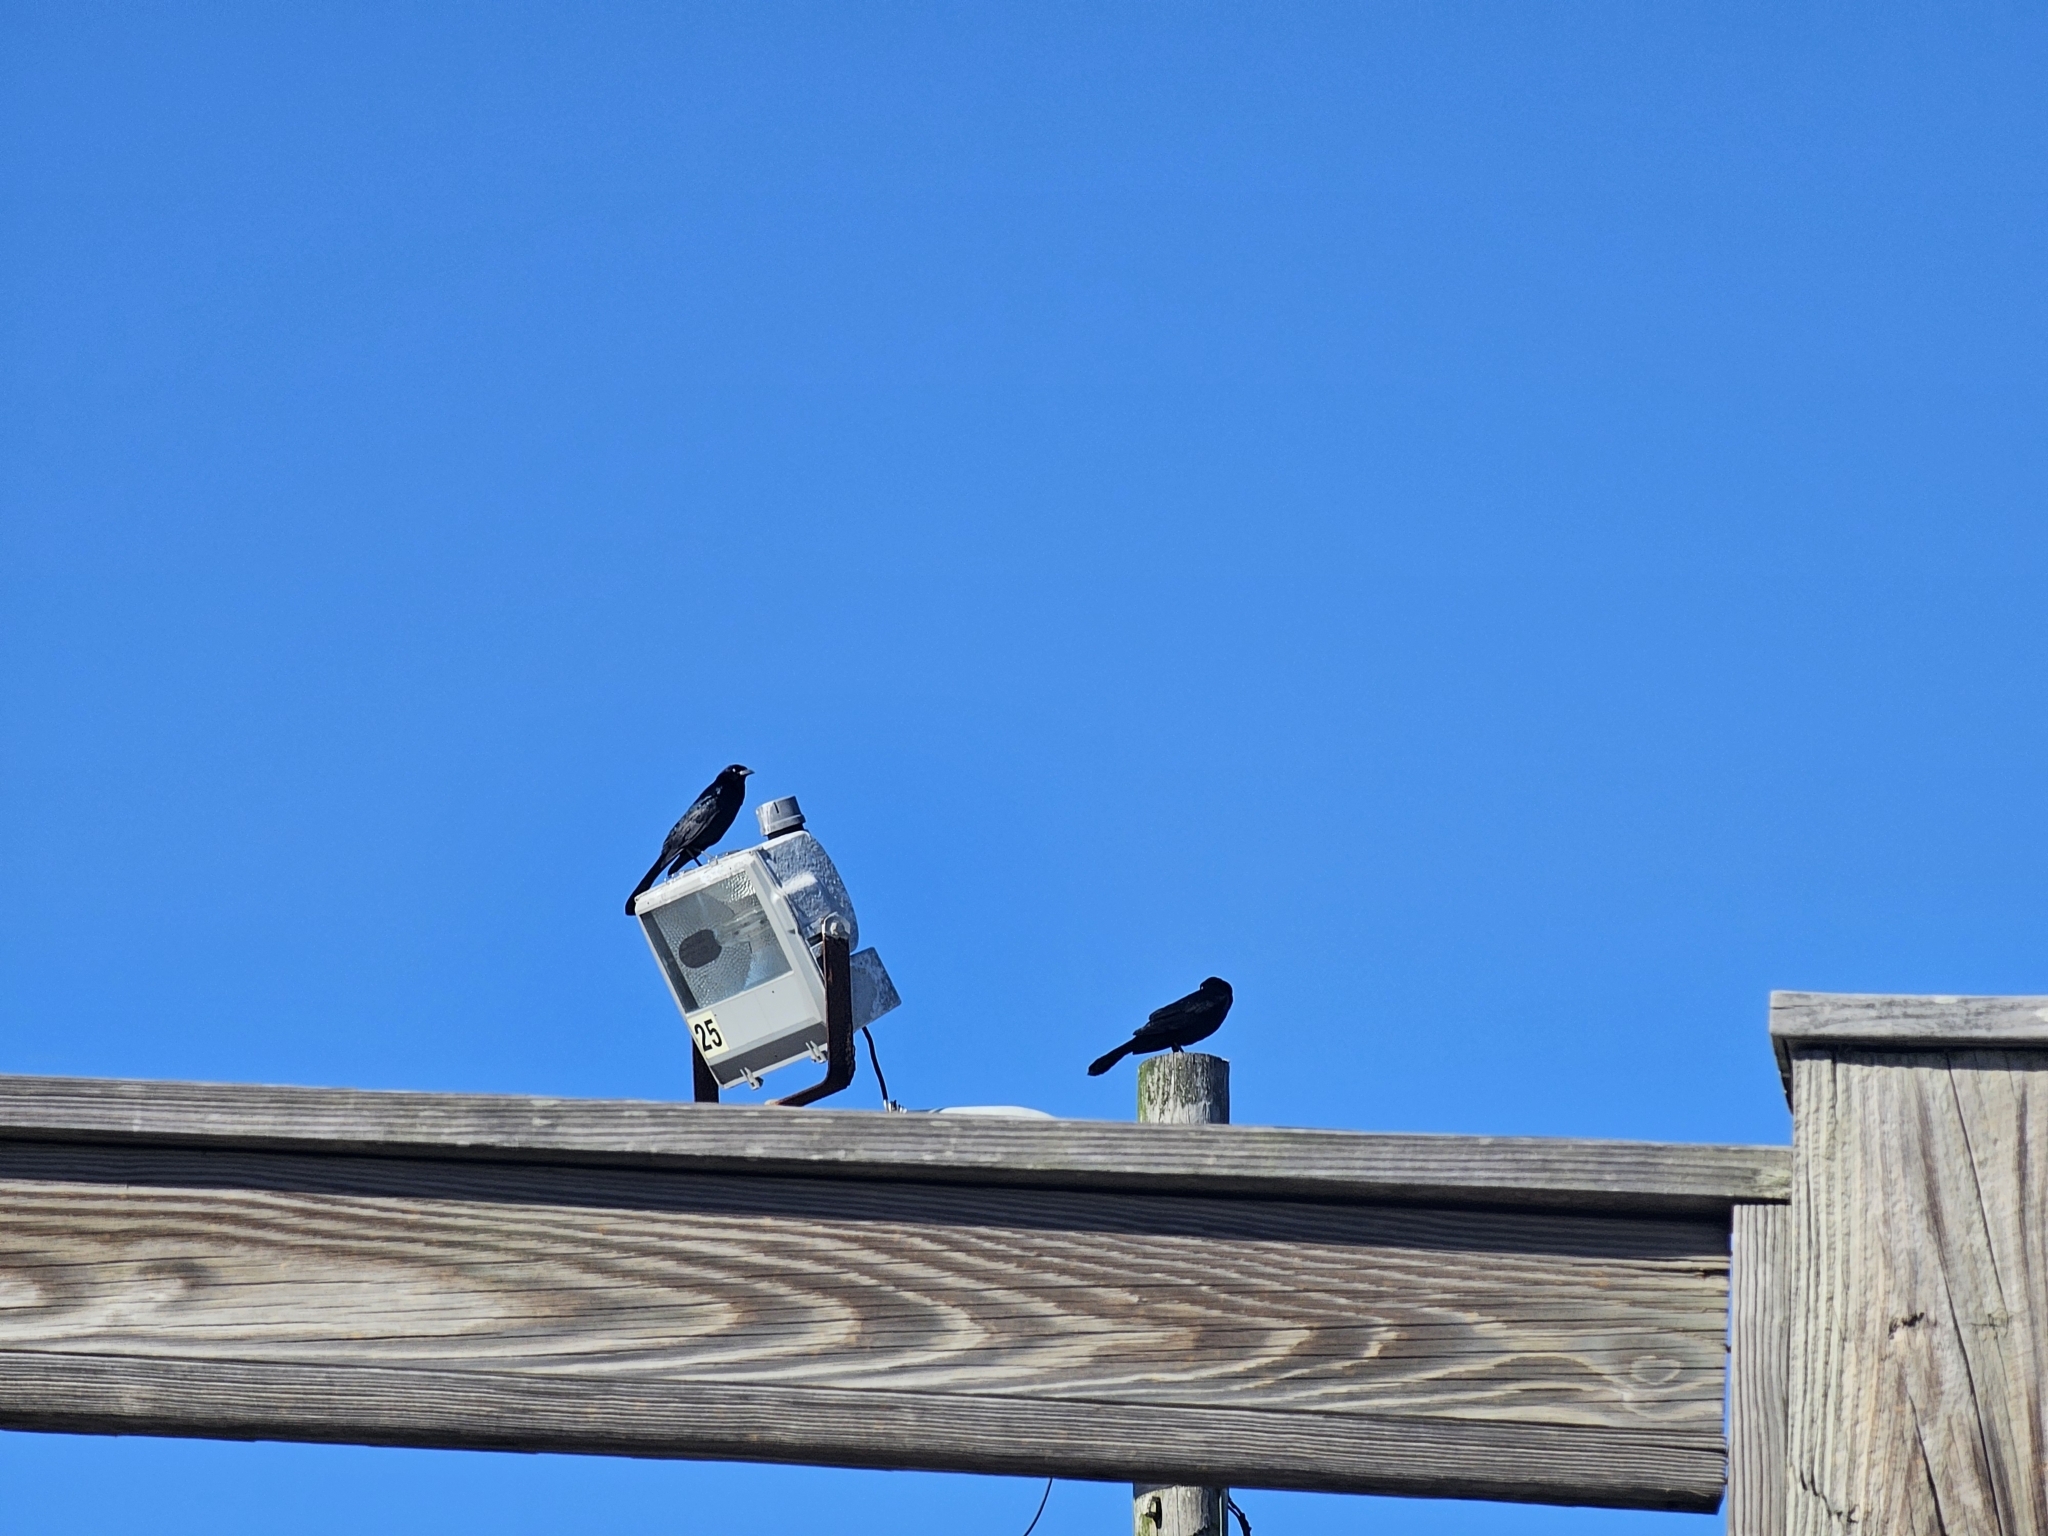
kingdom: Animalia
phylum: Chordata
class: Aves
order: Passeriformes
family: Icteridae
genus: Quiscalus
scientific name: Quiscalus major
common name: Boat-tailed grackle
